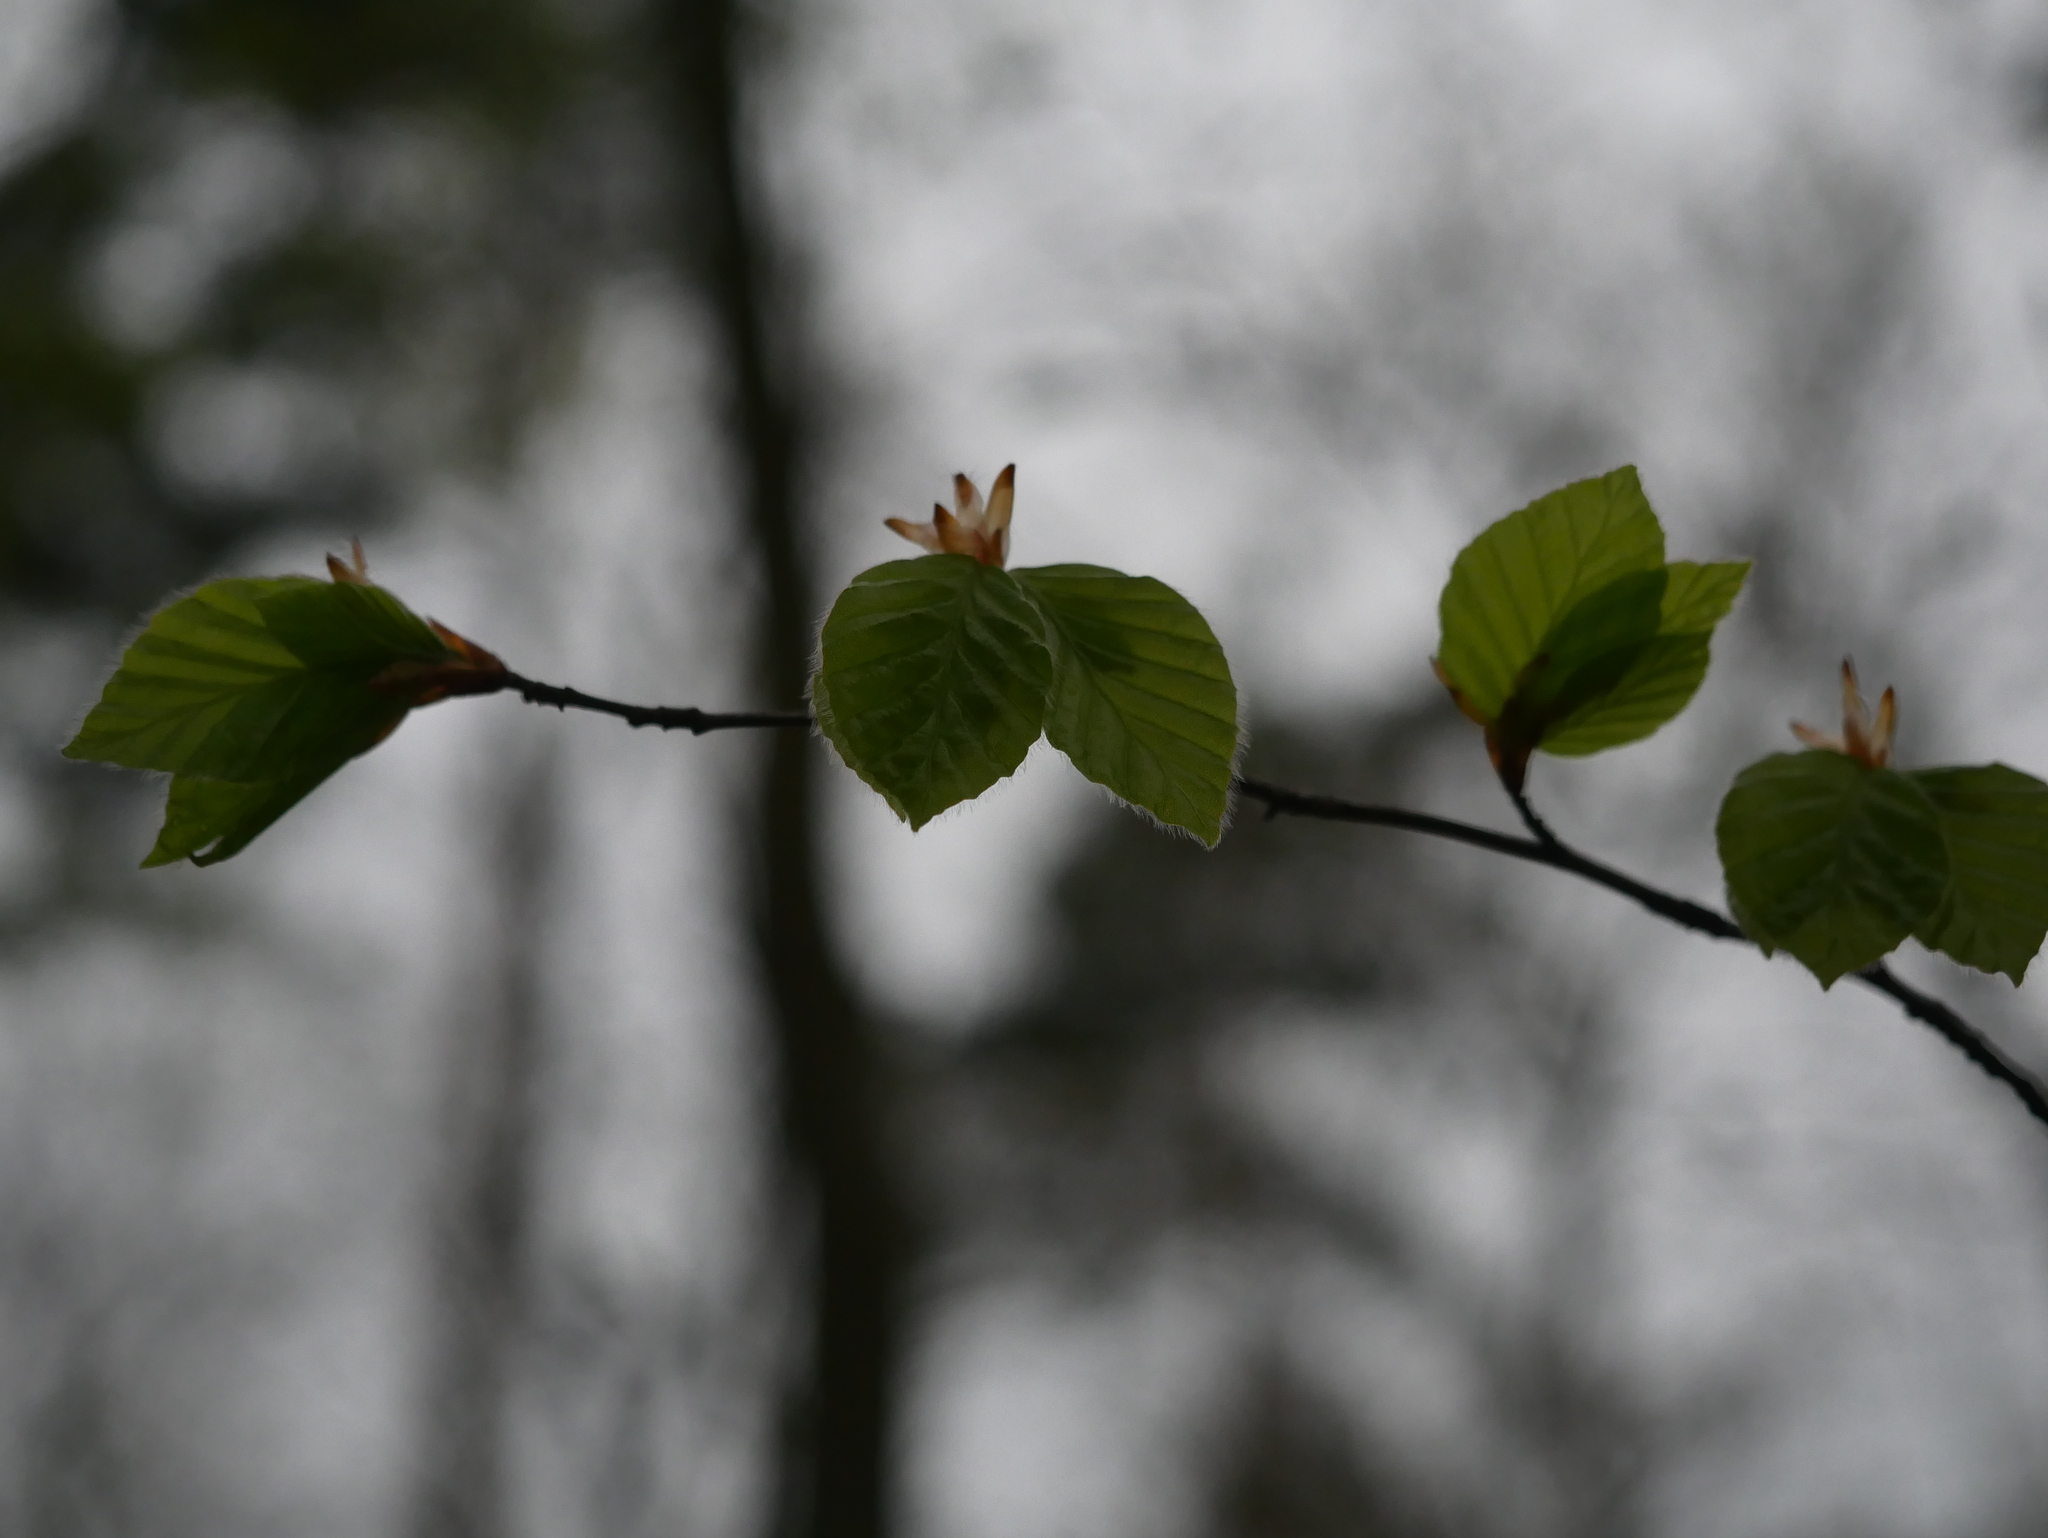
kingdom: Plantae
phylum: Tracheophyta
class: Magnoliopsida
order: Fagales
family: Fagaceae
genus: Fagus
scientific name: Fagus sylvatica
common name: Beech
